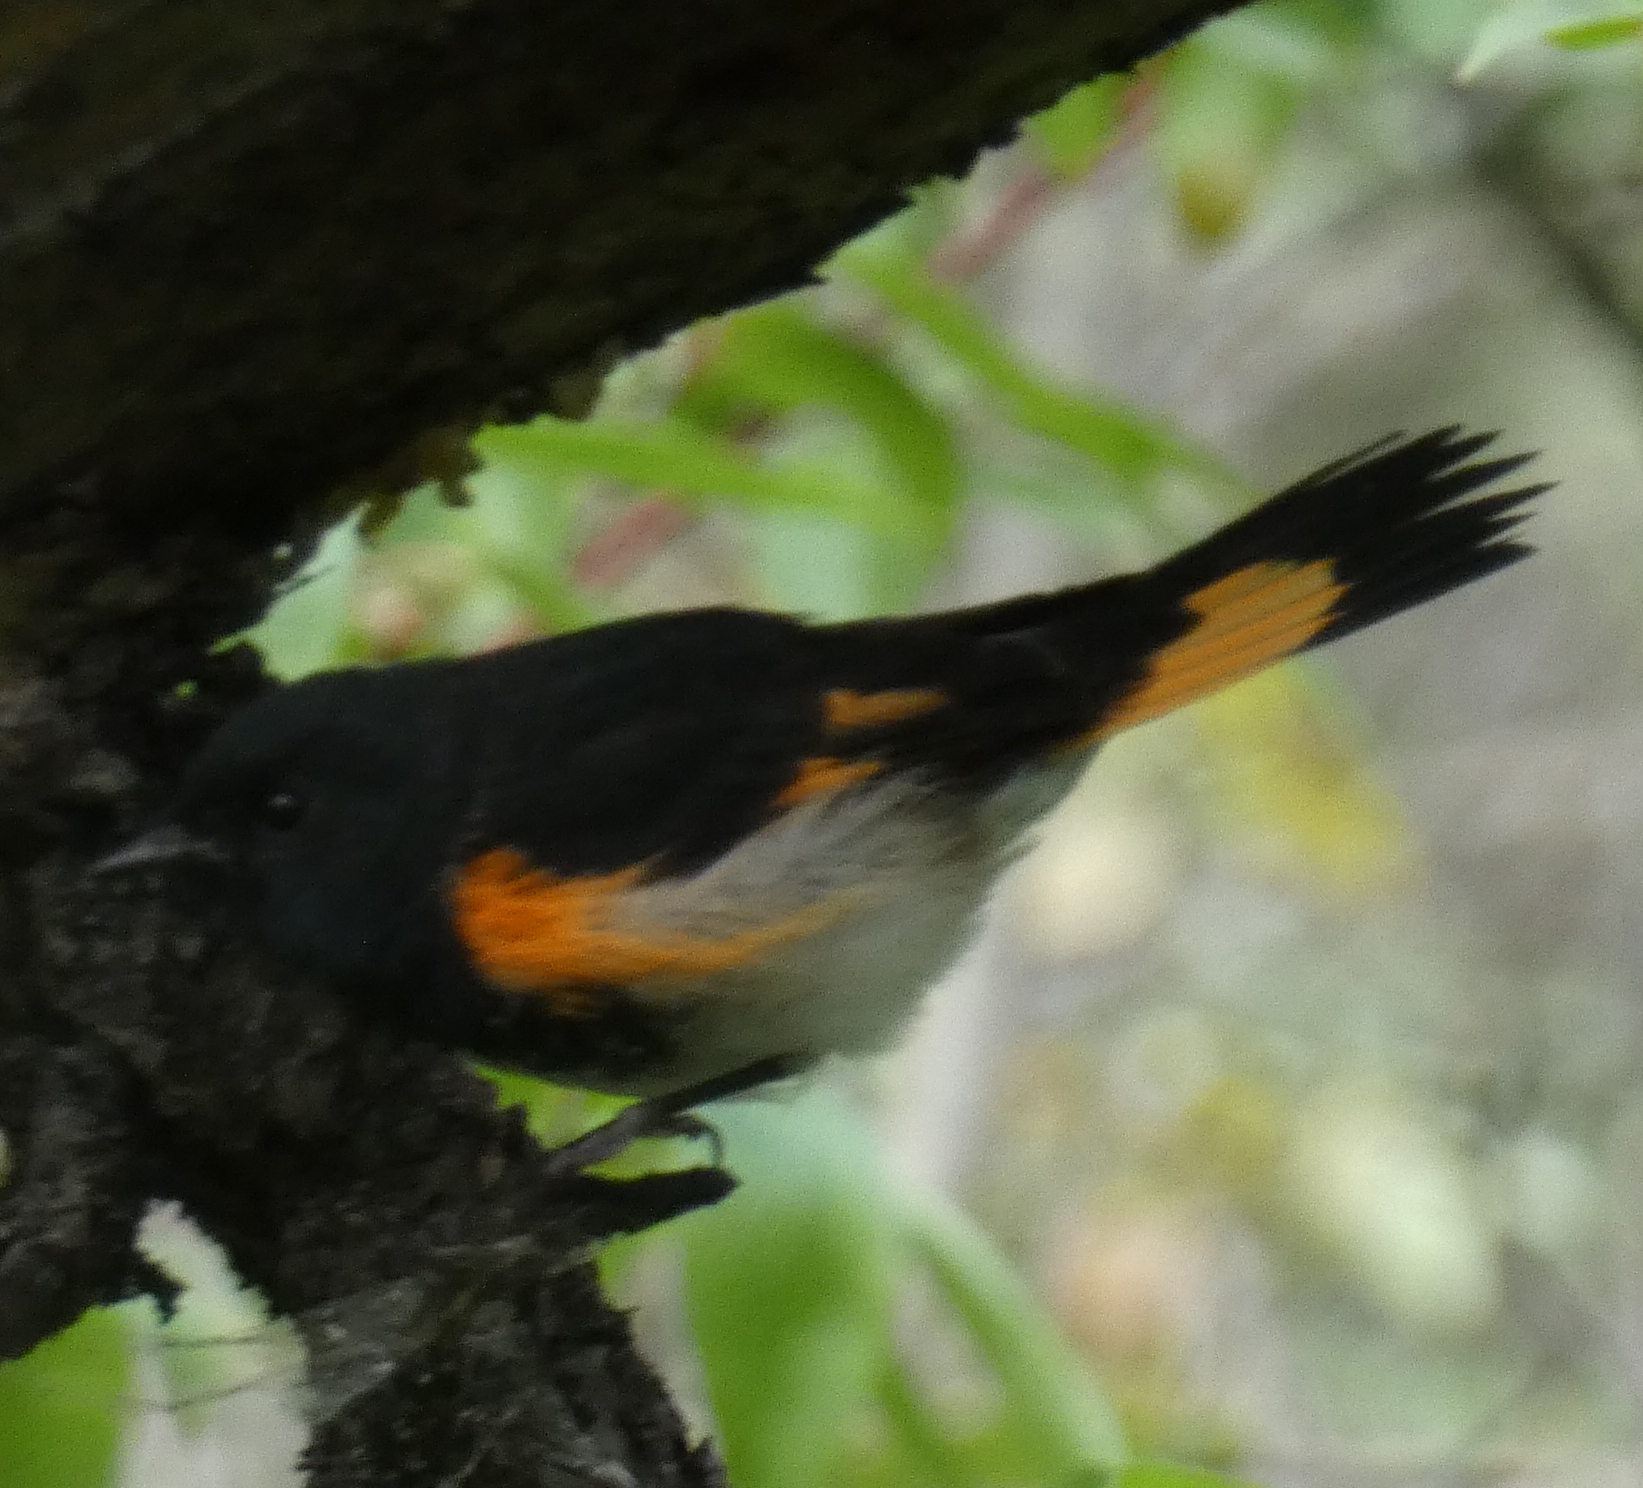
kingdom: Animalia
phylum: Chordata
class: Aves
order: Passeriformes
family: Parulidae
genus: Setophaga
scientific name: Setophaga ruticilla
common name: American redstart
